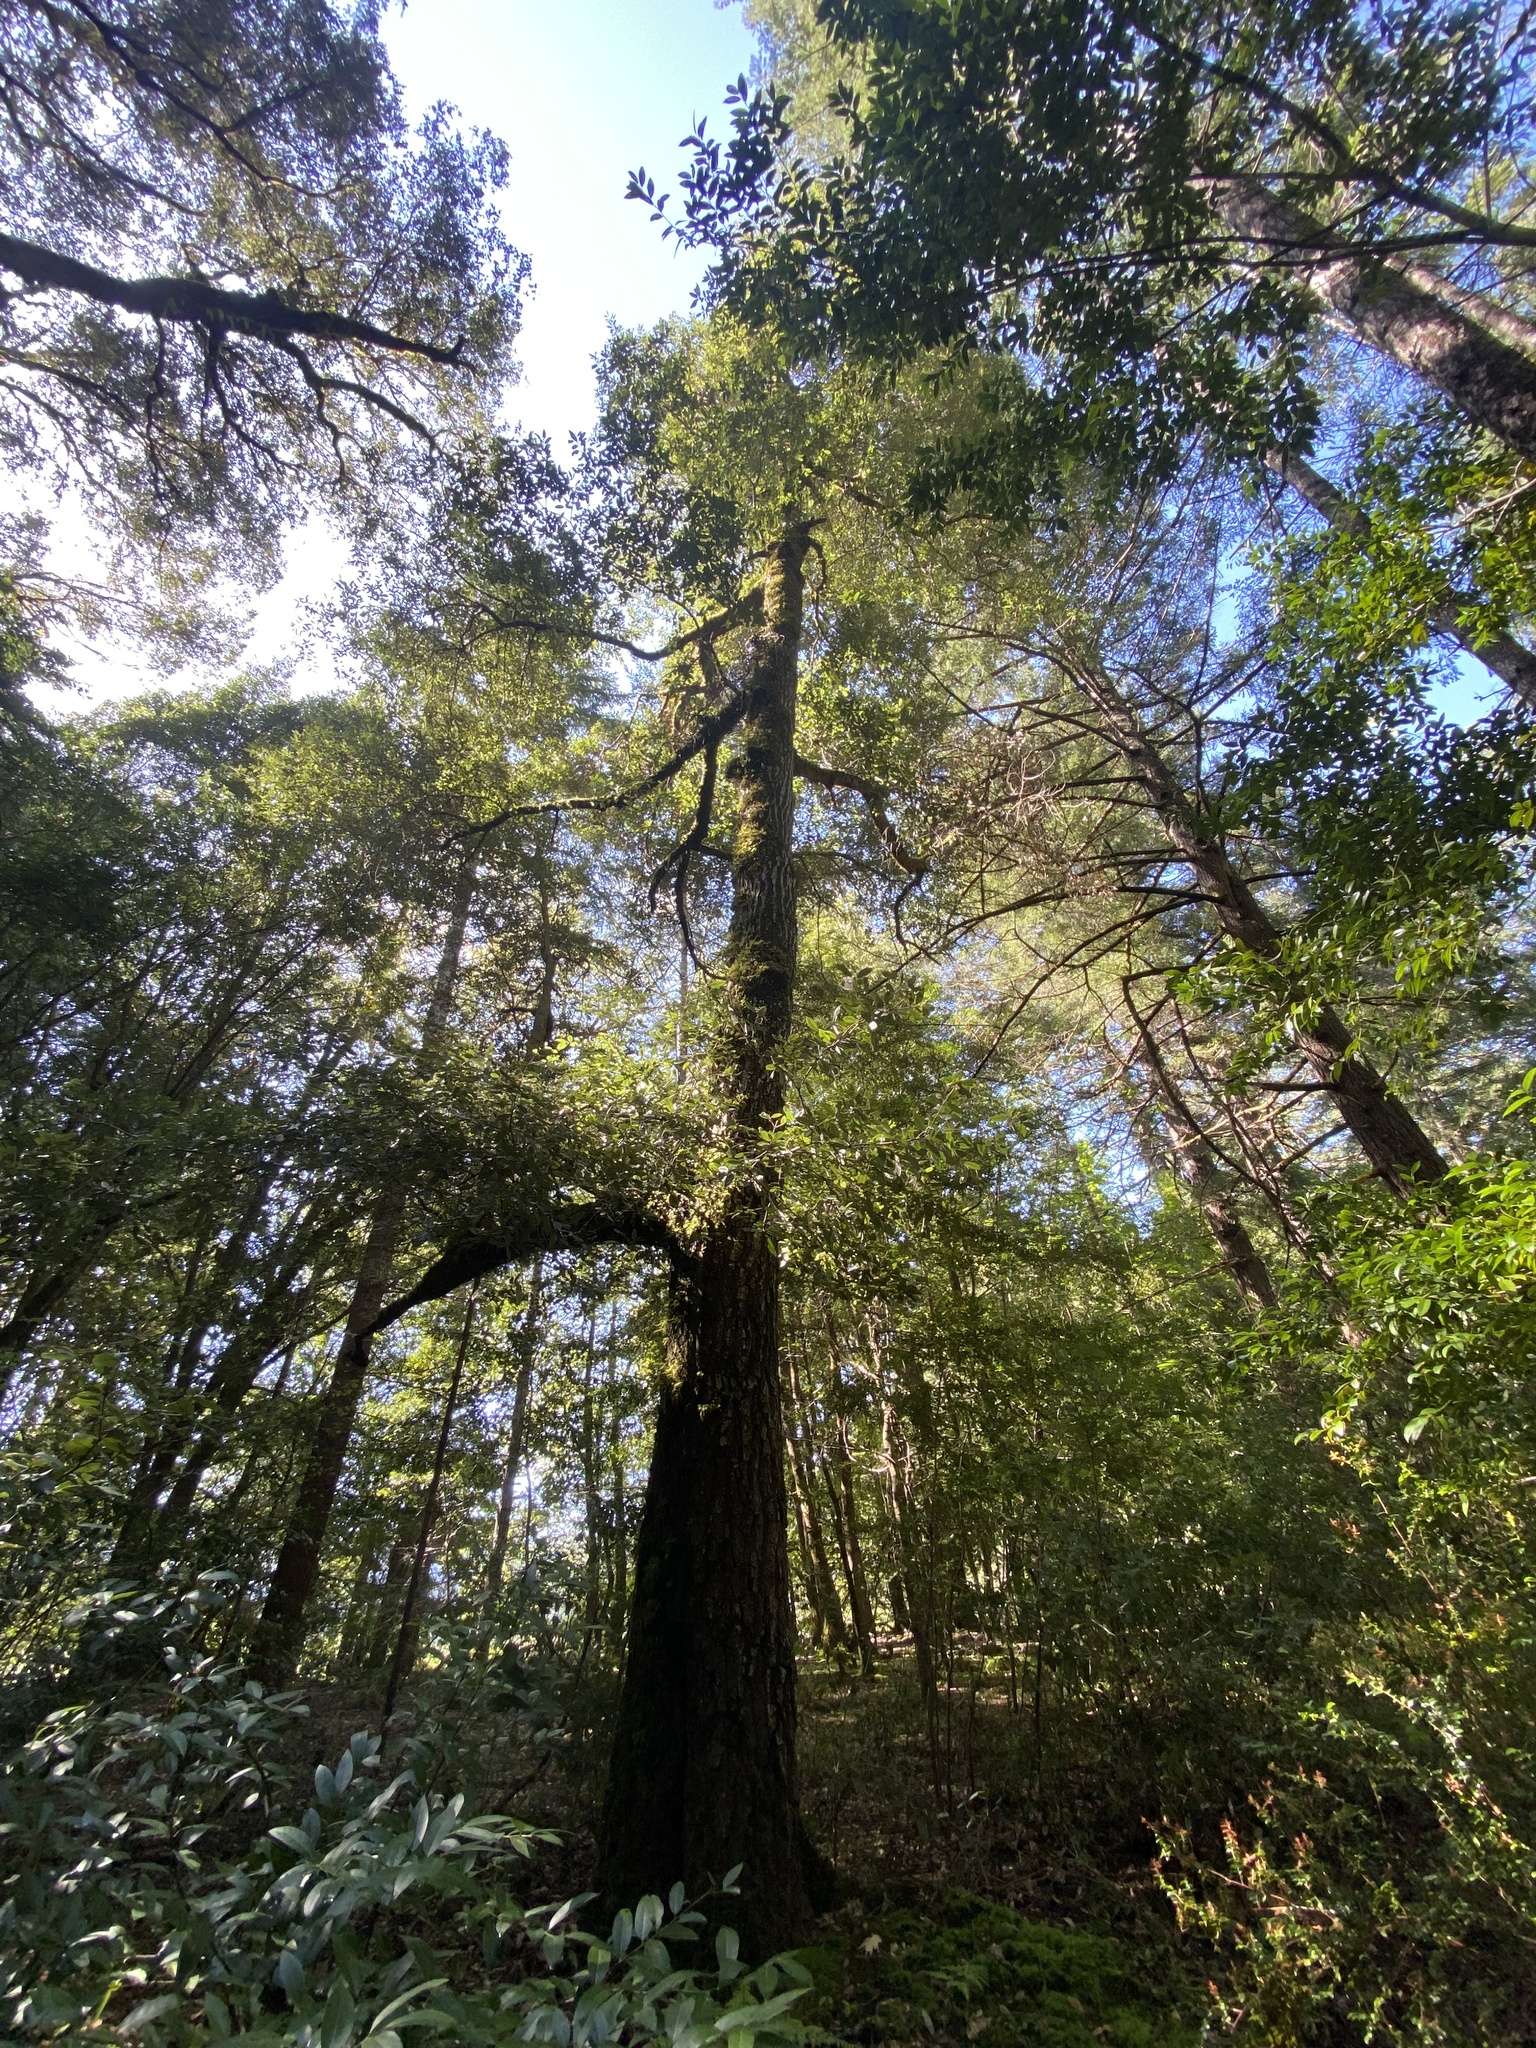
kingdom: Plantae
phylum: Tracheophyta
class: Magnoliopsida
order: Fagales
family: Fagaceae
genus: Notholithocarpus
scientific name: Notholithocarpus densiflorus
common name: Tan bark oak
